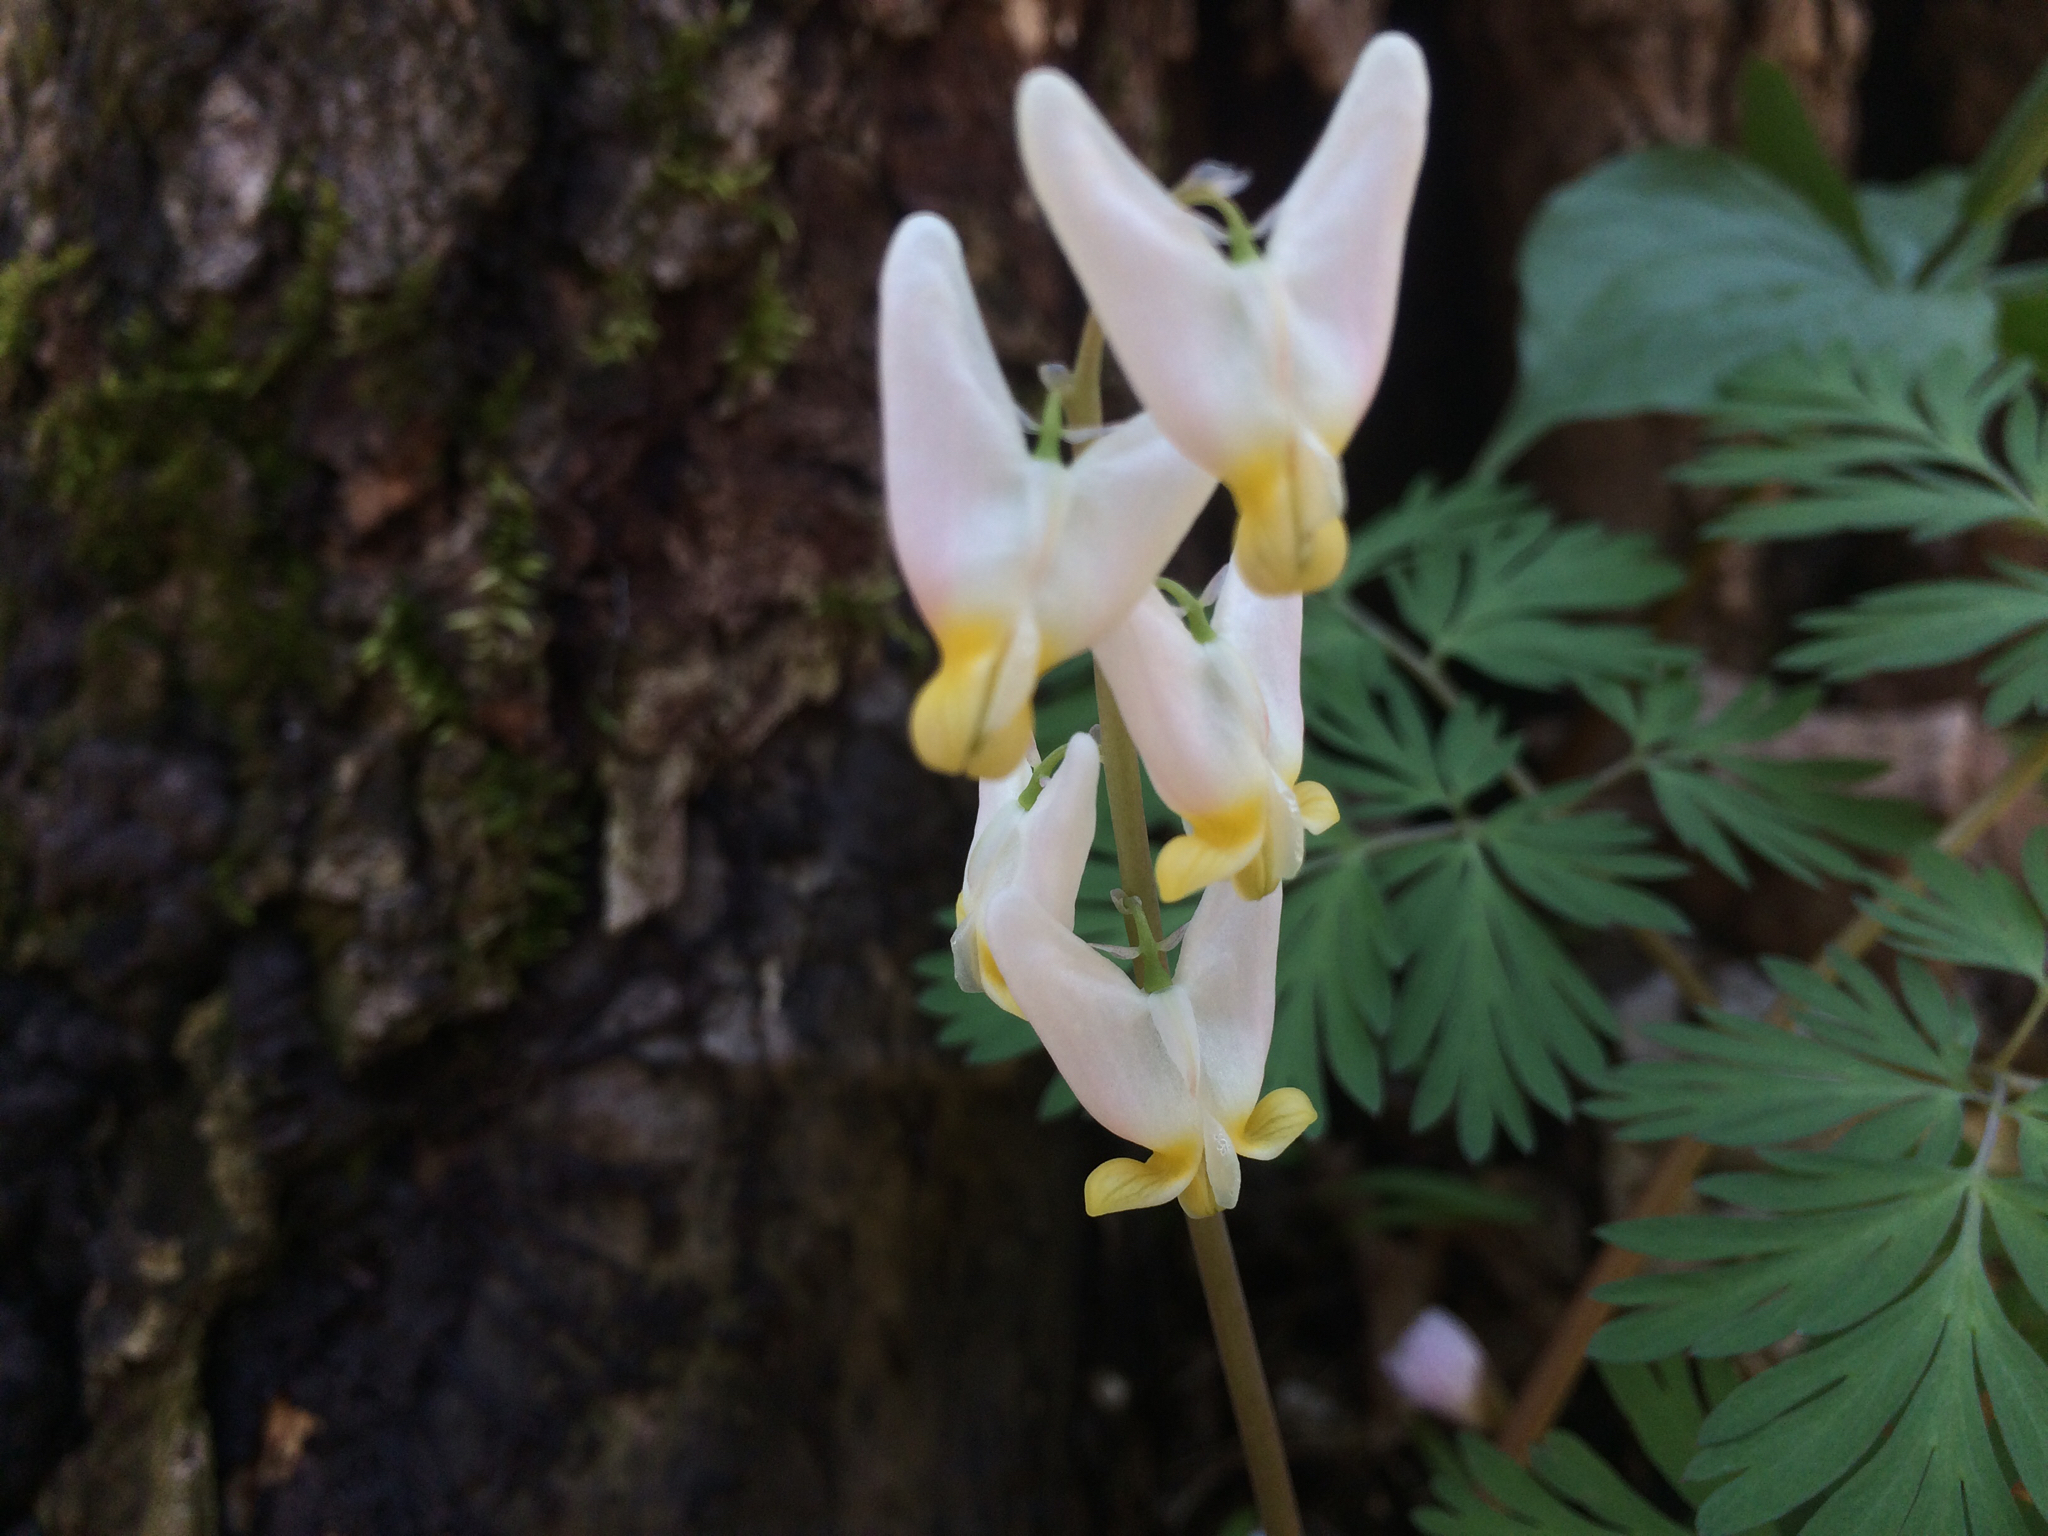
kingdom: Plantae
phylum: Tracheophyta
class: Magnoliopsida
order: Ranunculales
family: Papaveraceae
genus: Dicentra
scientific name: Dicentra cucullaria
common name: Dutchman's breeches
